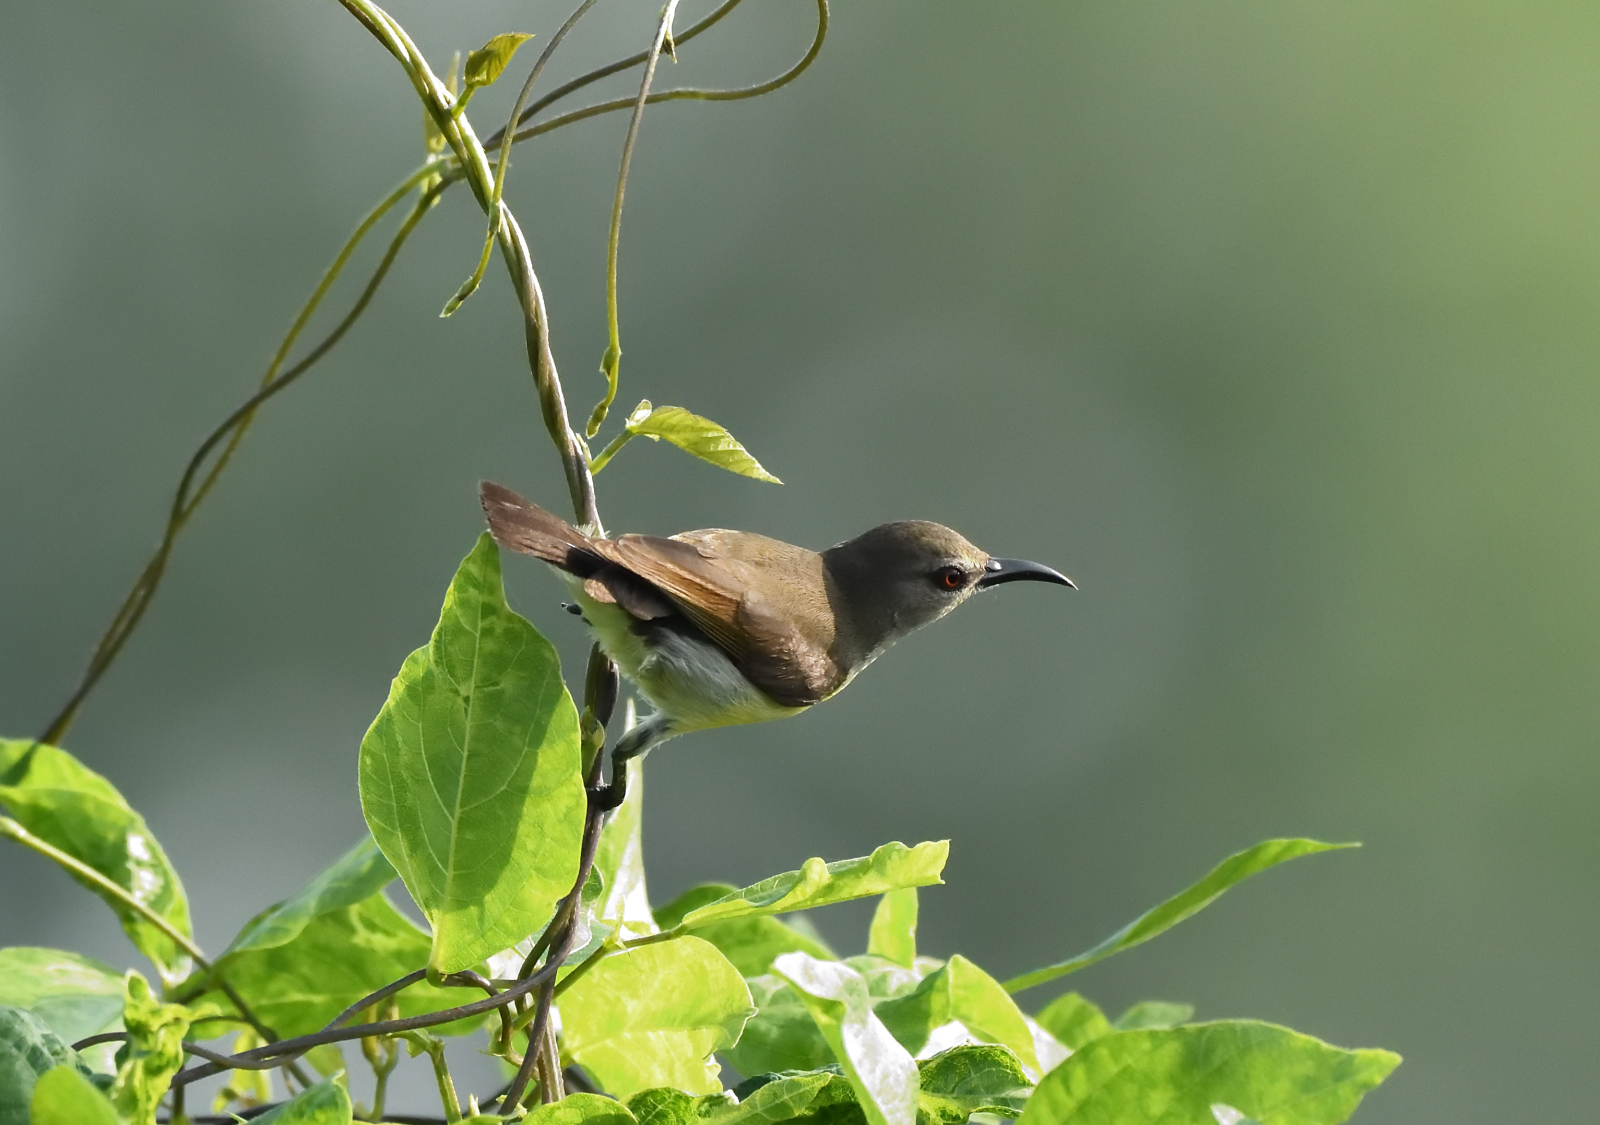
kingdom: Animalia
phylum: Chordata
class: Aves
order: Passeriformes
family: Nectariniidae
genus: Leptocoma
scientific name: Leptocoma zeylonica
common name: Purple-rumped sunbird
